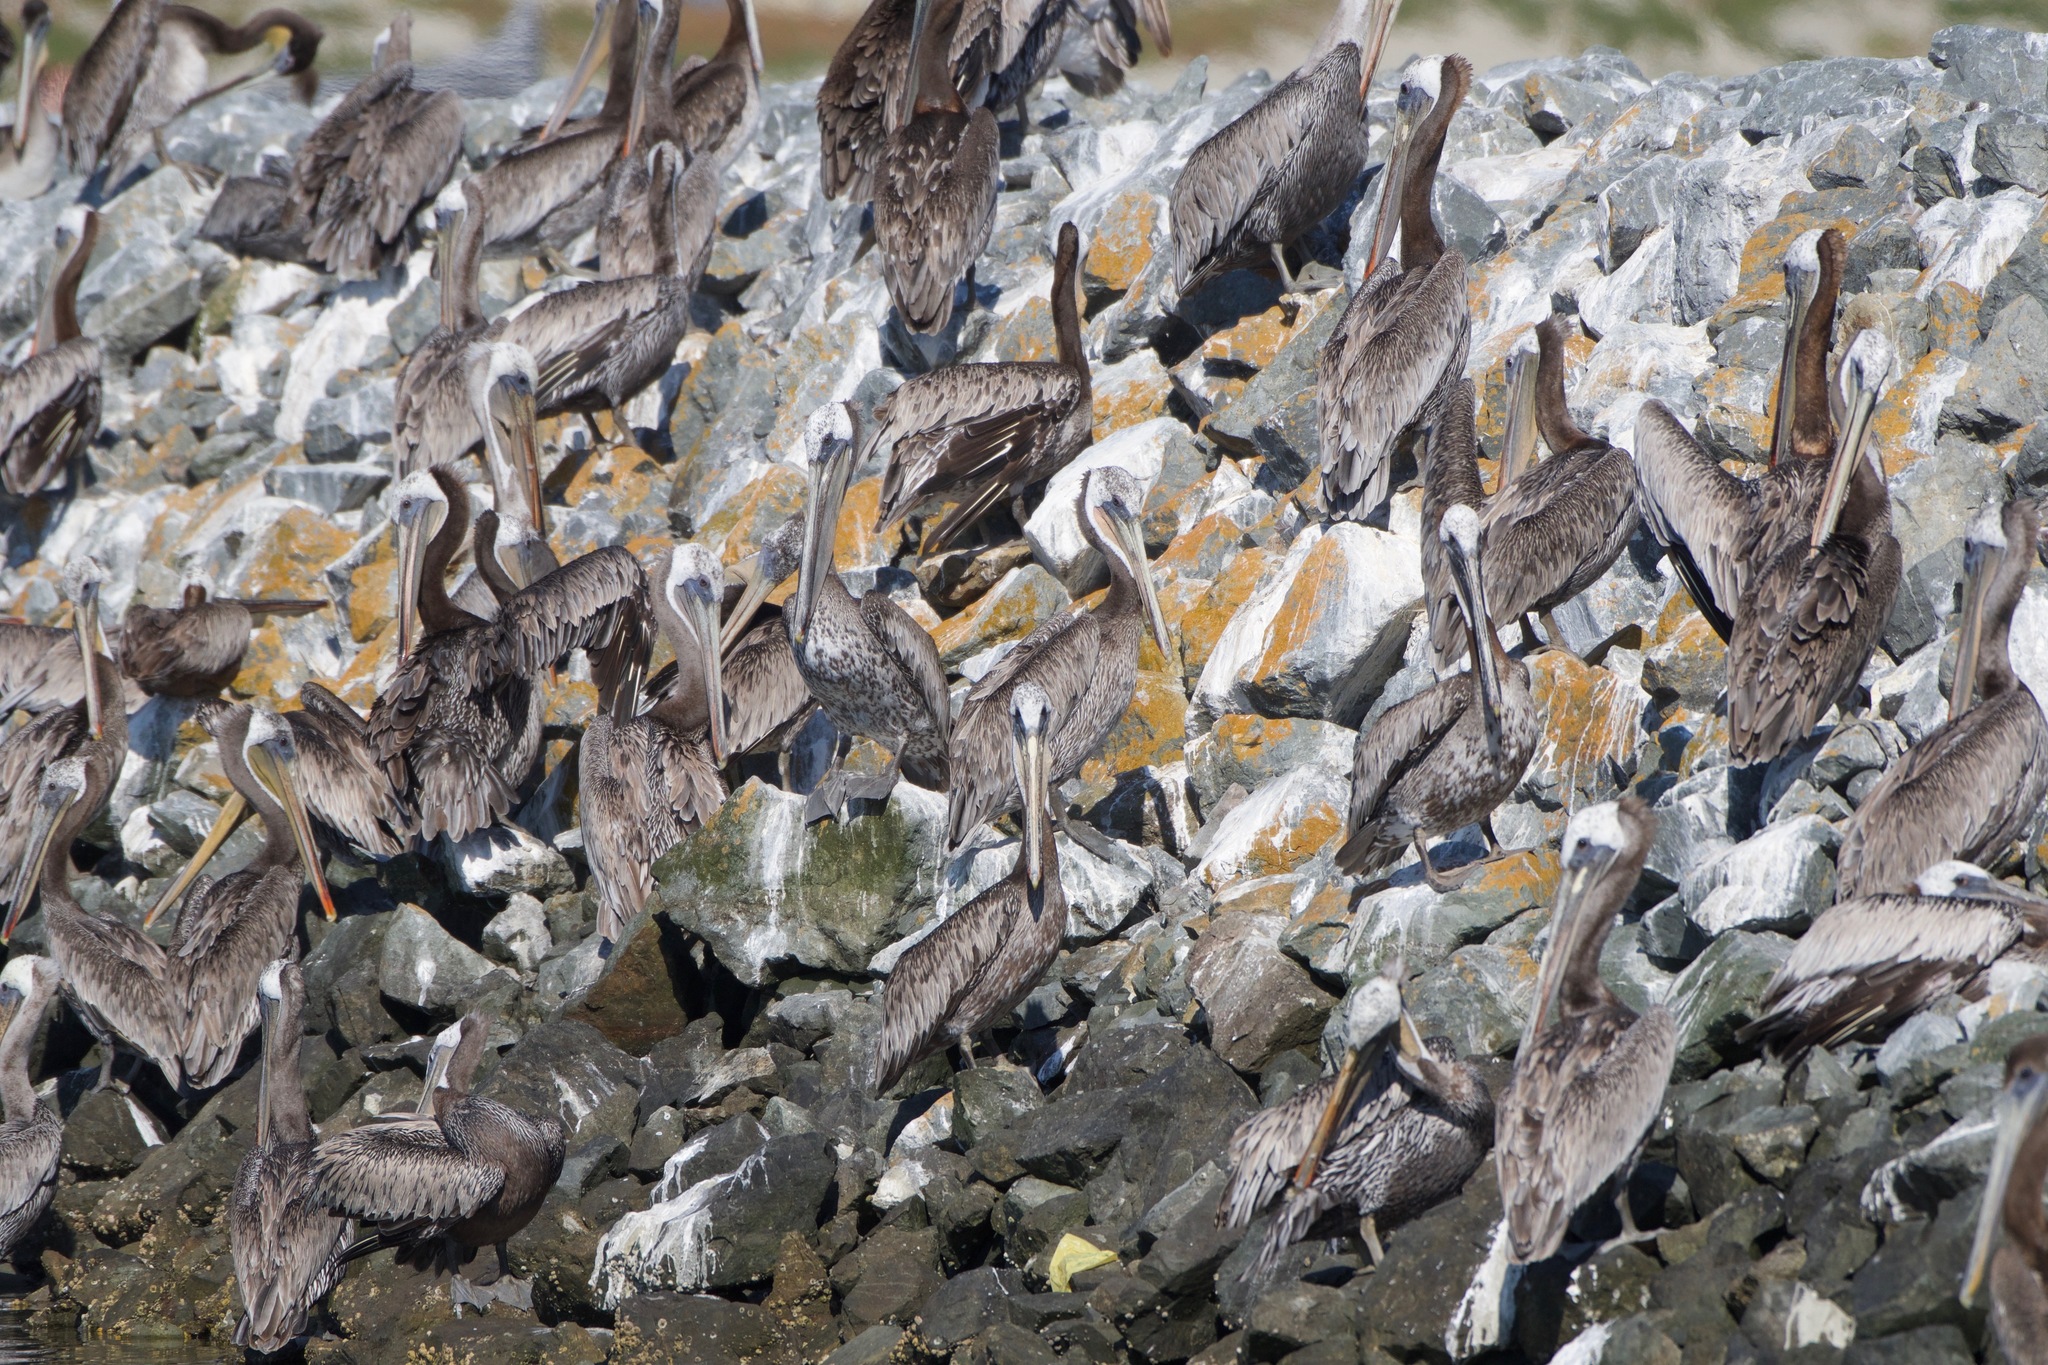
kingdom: Animalia
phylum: Chordata
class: Aves
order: Pelecaniformes
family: Pelecanidae
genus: Pelecanus
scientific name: Pelecanus occidentalis
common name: Brown pelican
